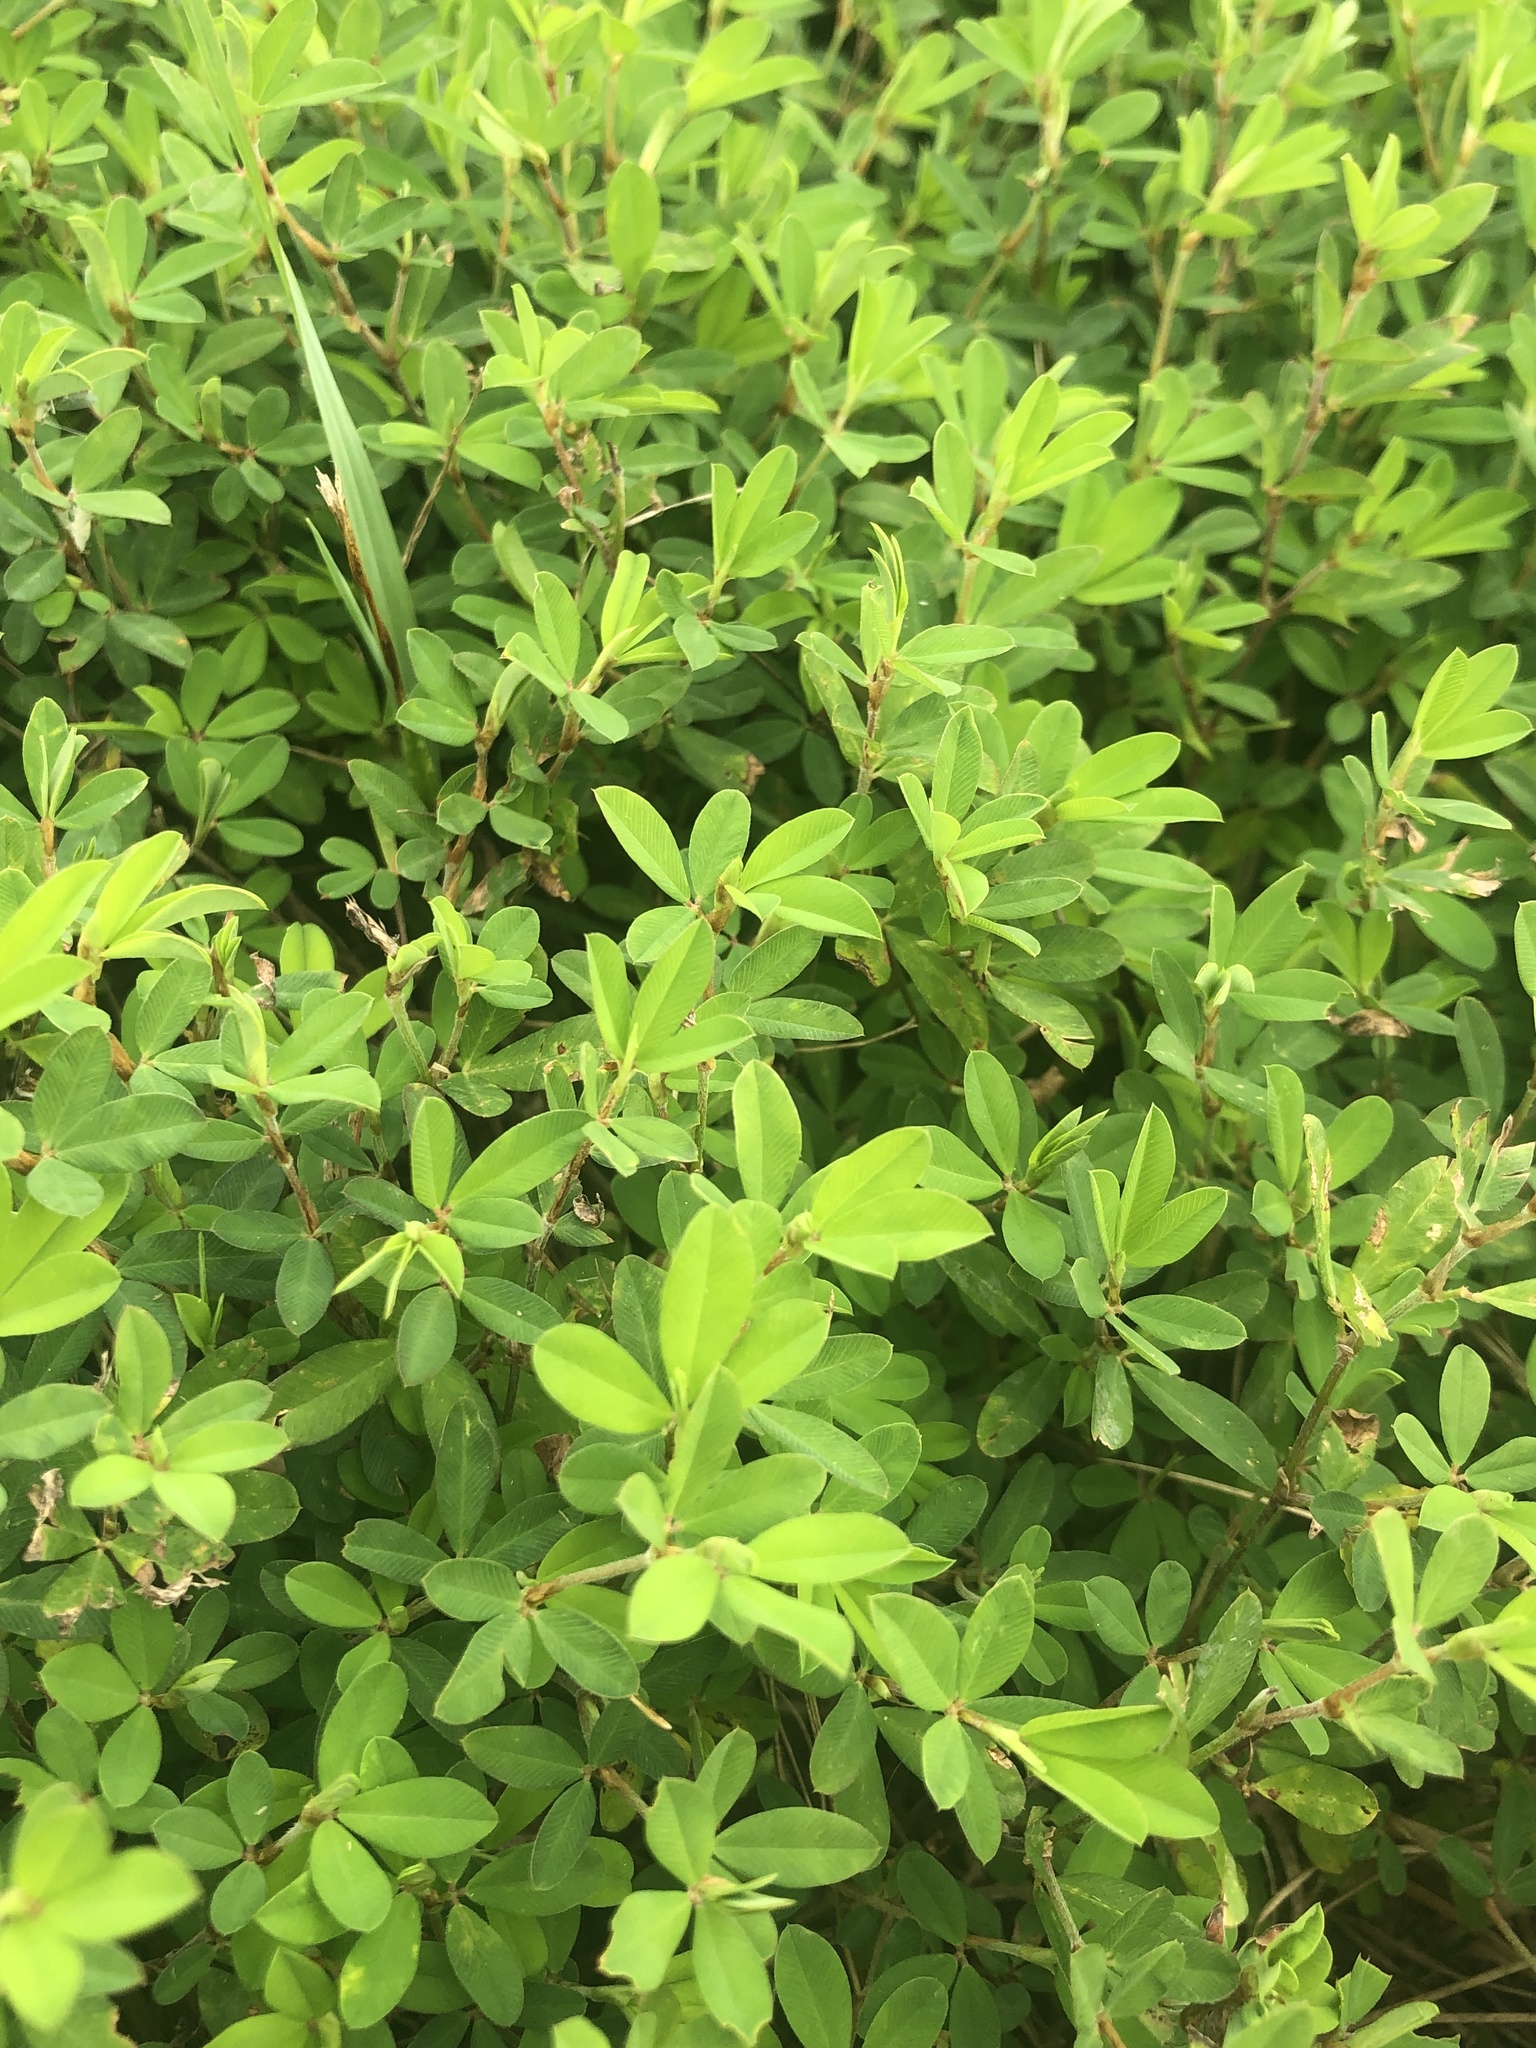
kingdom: Plantae
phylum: Tracheophyta
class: Magnoliopsida
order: Fabales
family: Fabaceae
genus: Kummerowia
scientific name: Kummerowia striata
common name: Japanese clover
